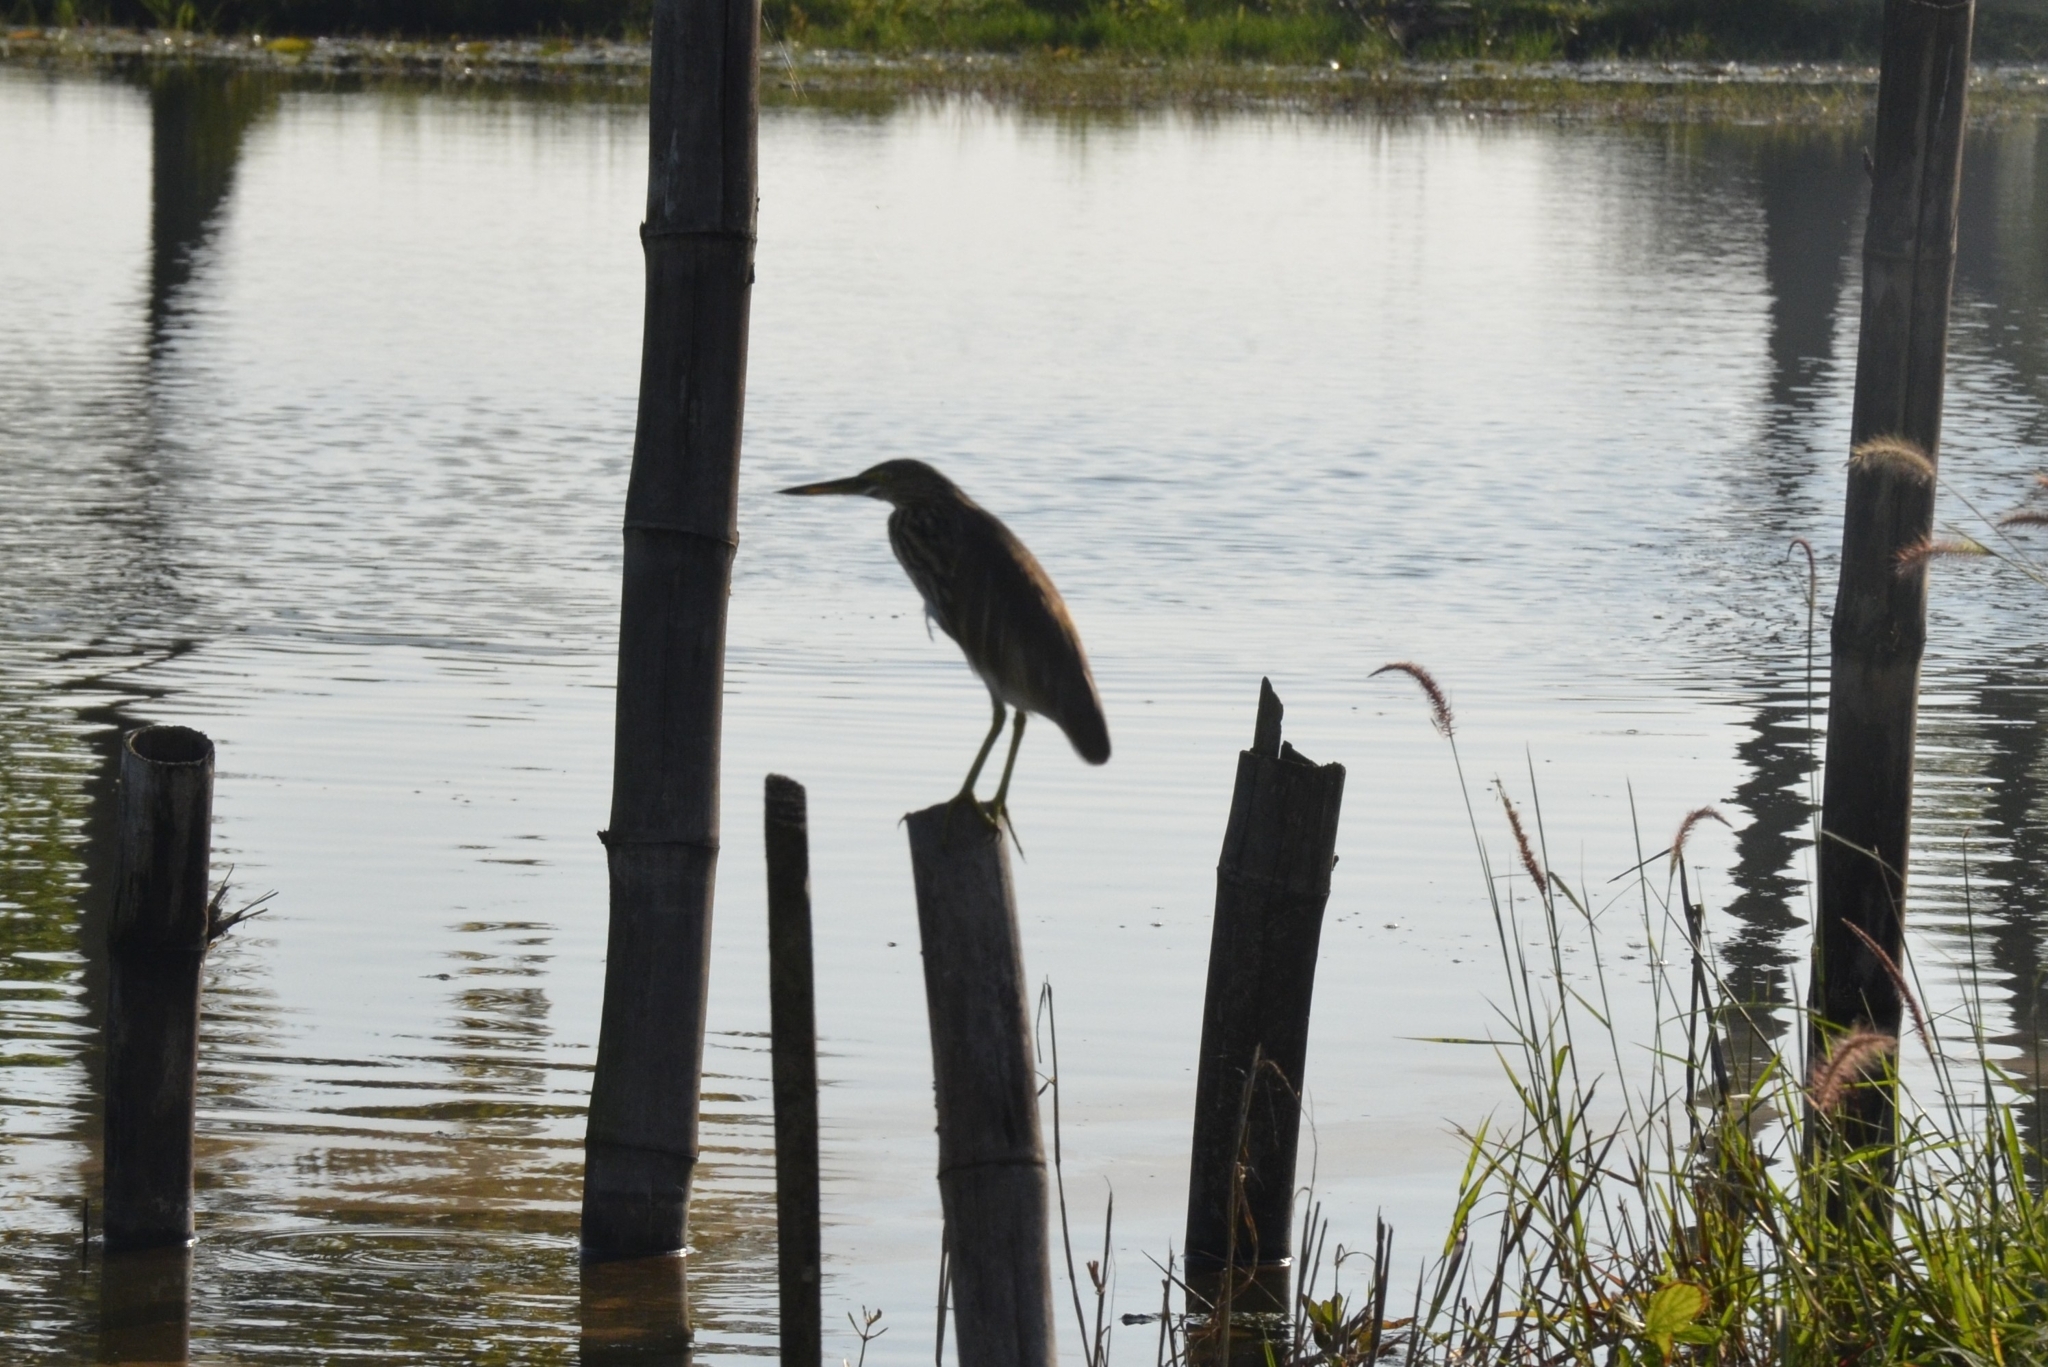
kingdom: Animalia
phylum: Chordata
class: Aves
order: Pelecaniformes
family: Ardeidae
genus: Ardeola
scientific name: Ardeola grayii
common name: Indian pond heron
